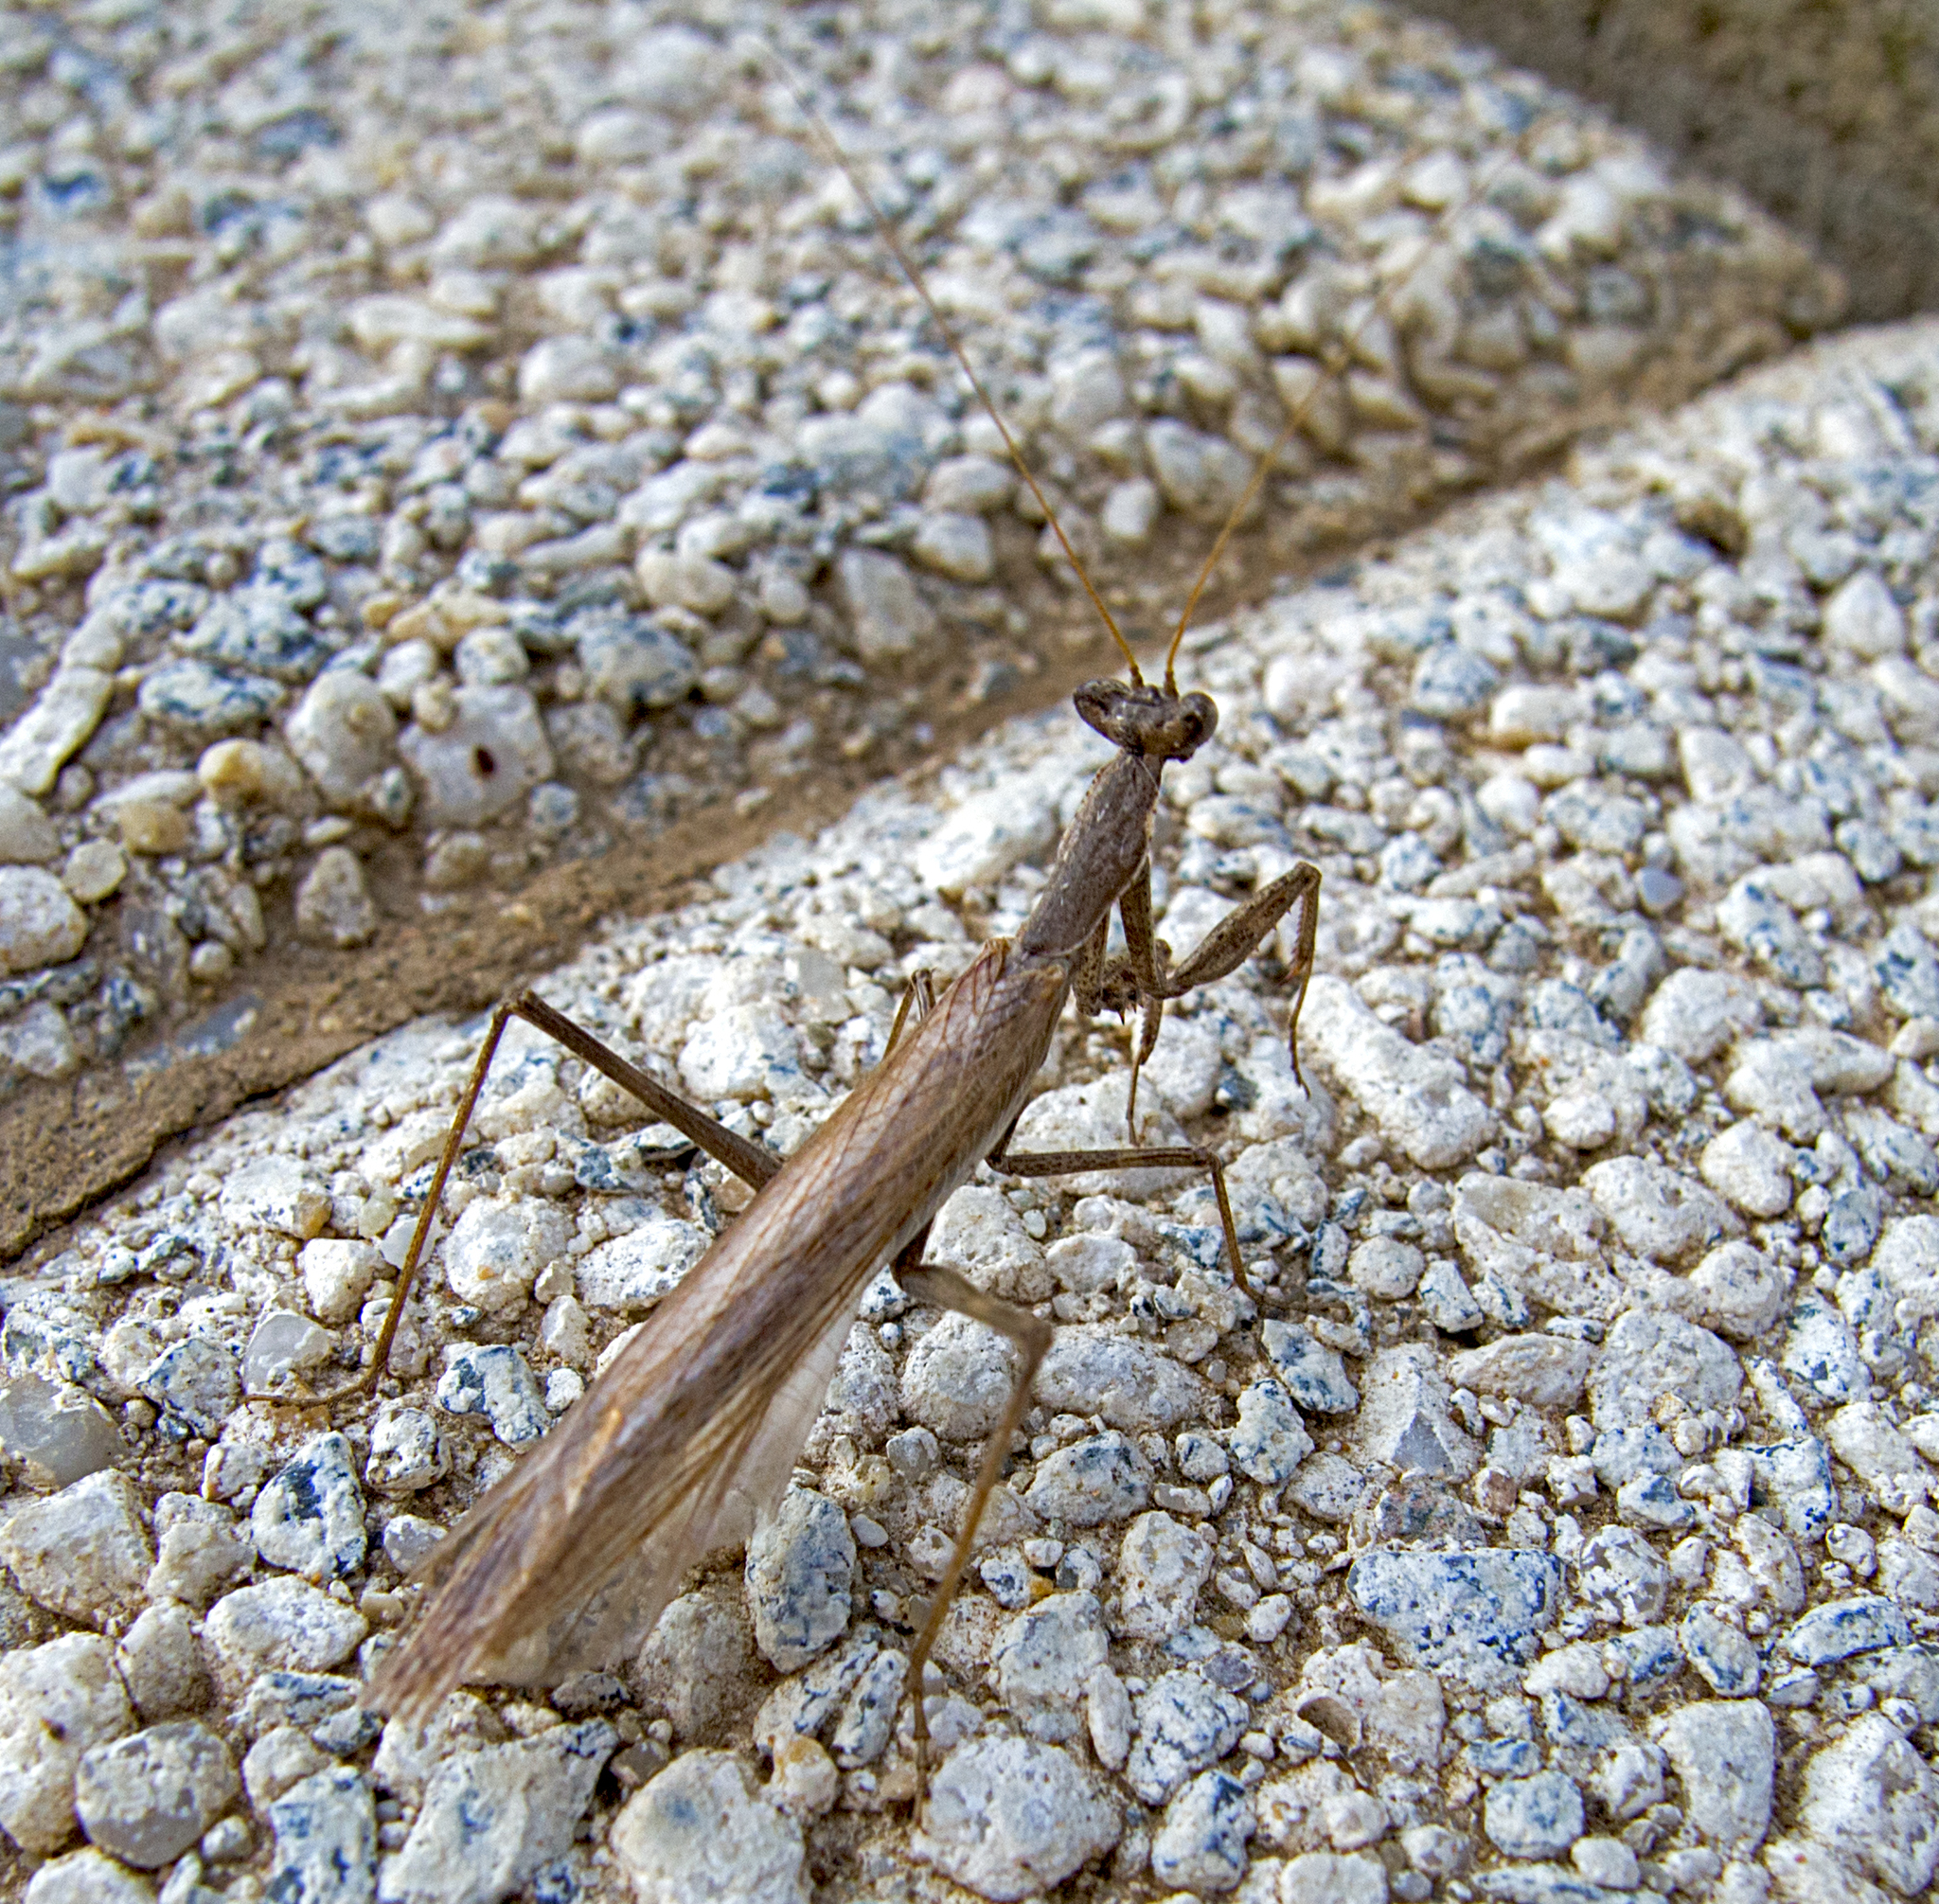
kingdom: Animalia
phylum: Arthropoda
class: Insecta
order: Mantodea
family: Amelidae
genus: Ameles
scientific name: Ameles heldreichi
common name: Heldreich's dwarf mantis
